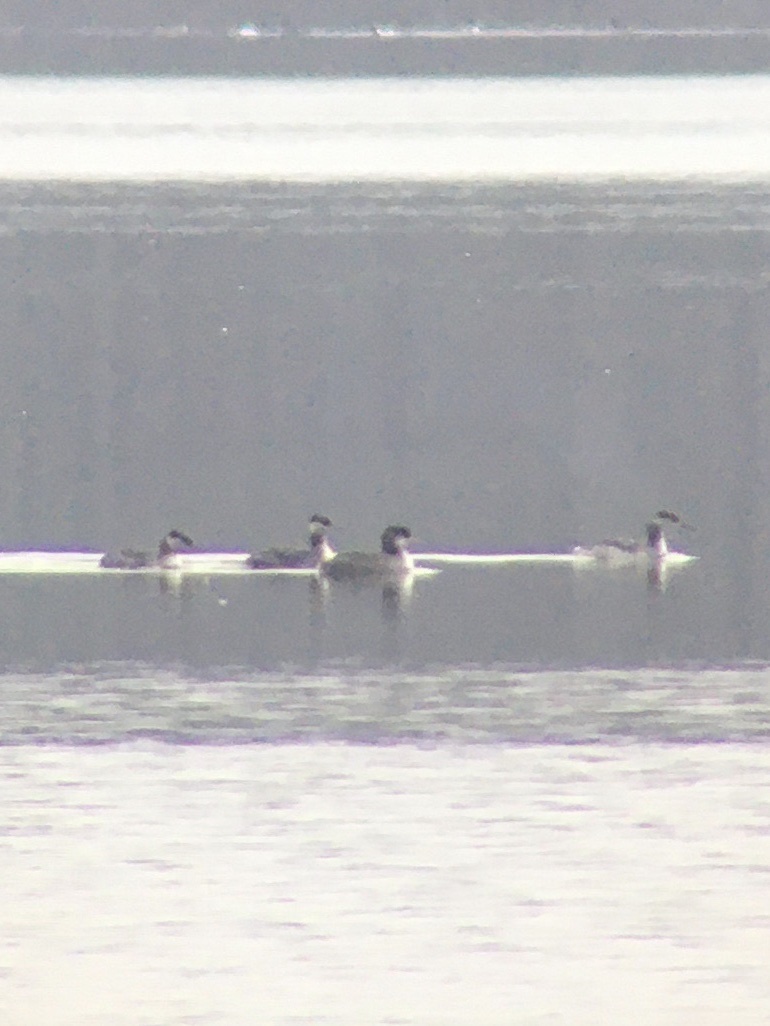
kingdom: Animalia
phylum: Chordata
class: Aves
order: Podicipediformes
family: Podicipedidae
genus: Podiceps
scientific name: Podiceps grisegena
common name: Red-necked grebe
